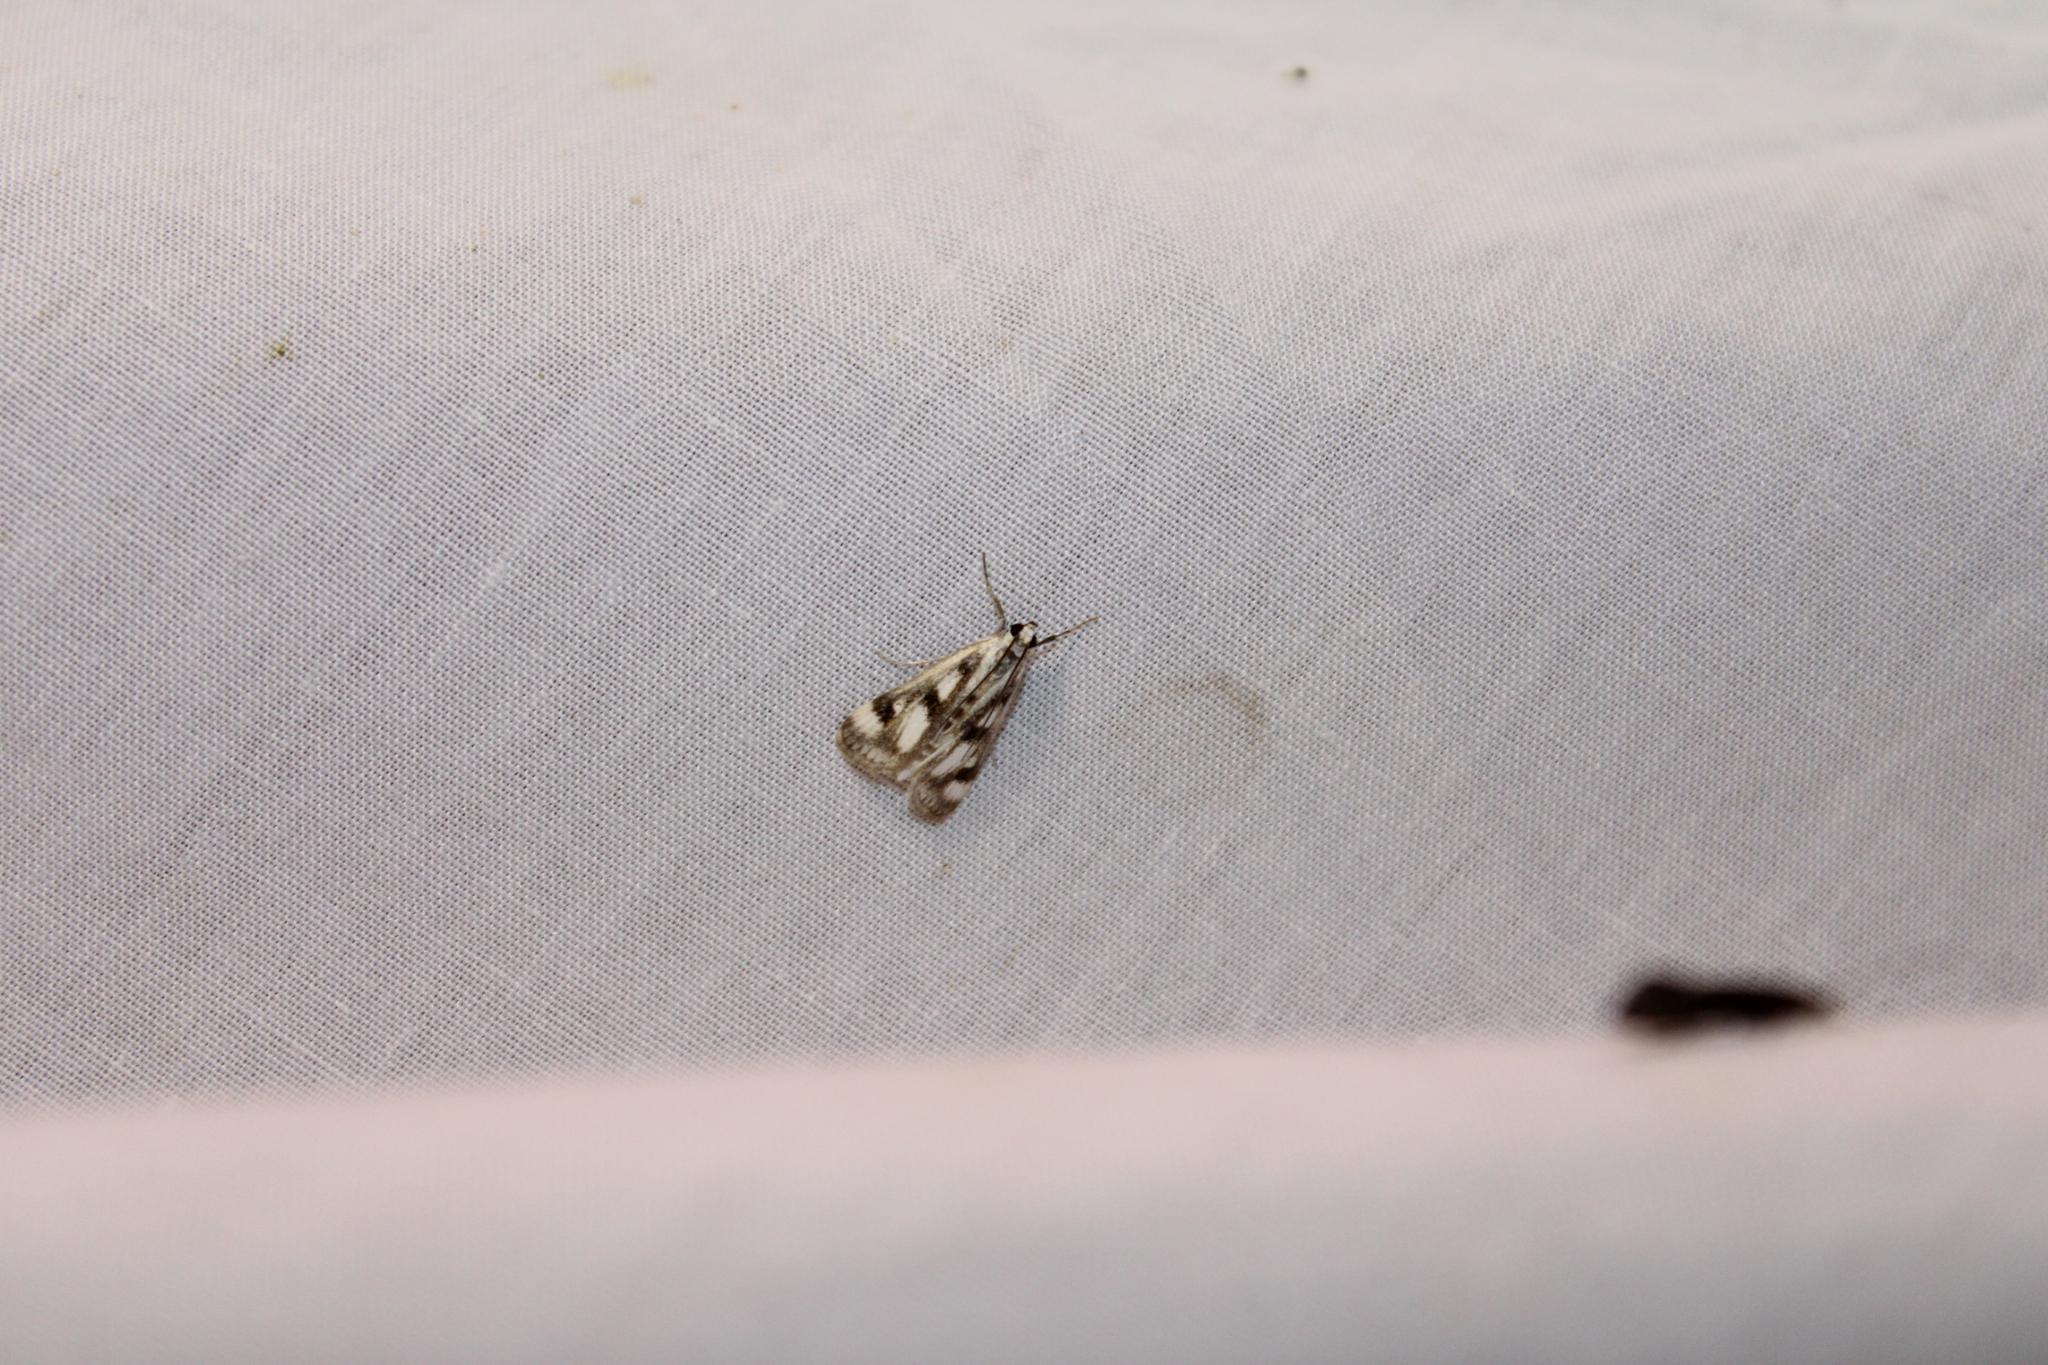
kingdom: Animalia
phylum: Arthropoda
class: Insecta
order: Lepidoptera
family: Crambidae
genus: Parapoynx
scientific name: Parapoynx maculalis
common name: Polymorphic pondweed moth
